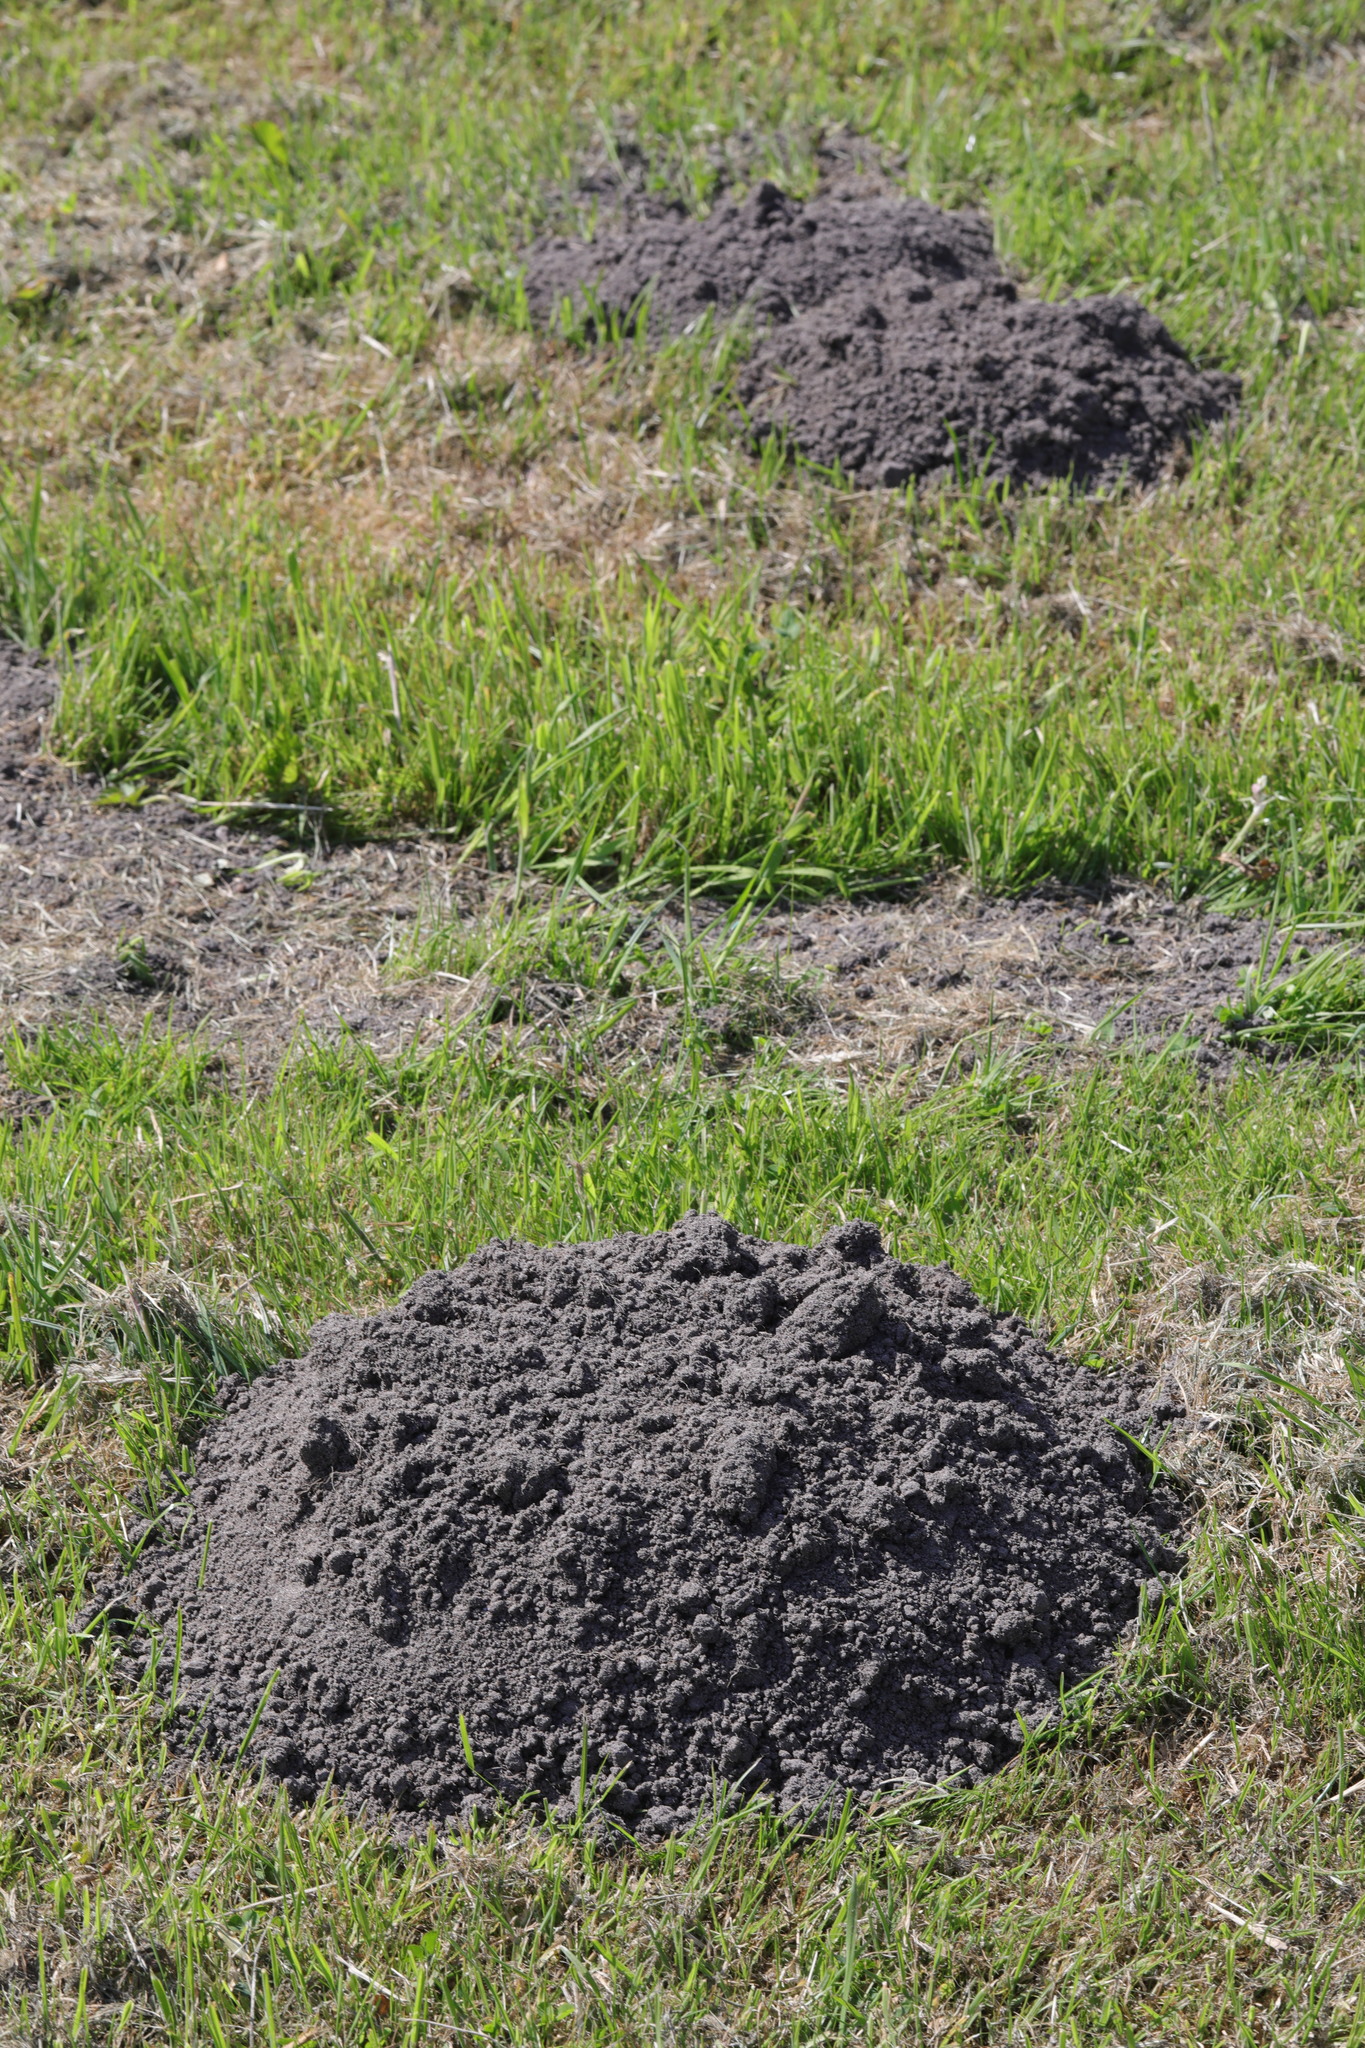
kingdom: Animalia
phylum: Chordata
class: Mammalia
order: Soricomorpha
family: Talpidae
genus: Talpa
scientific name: Talpa europaea
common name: European mole
